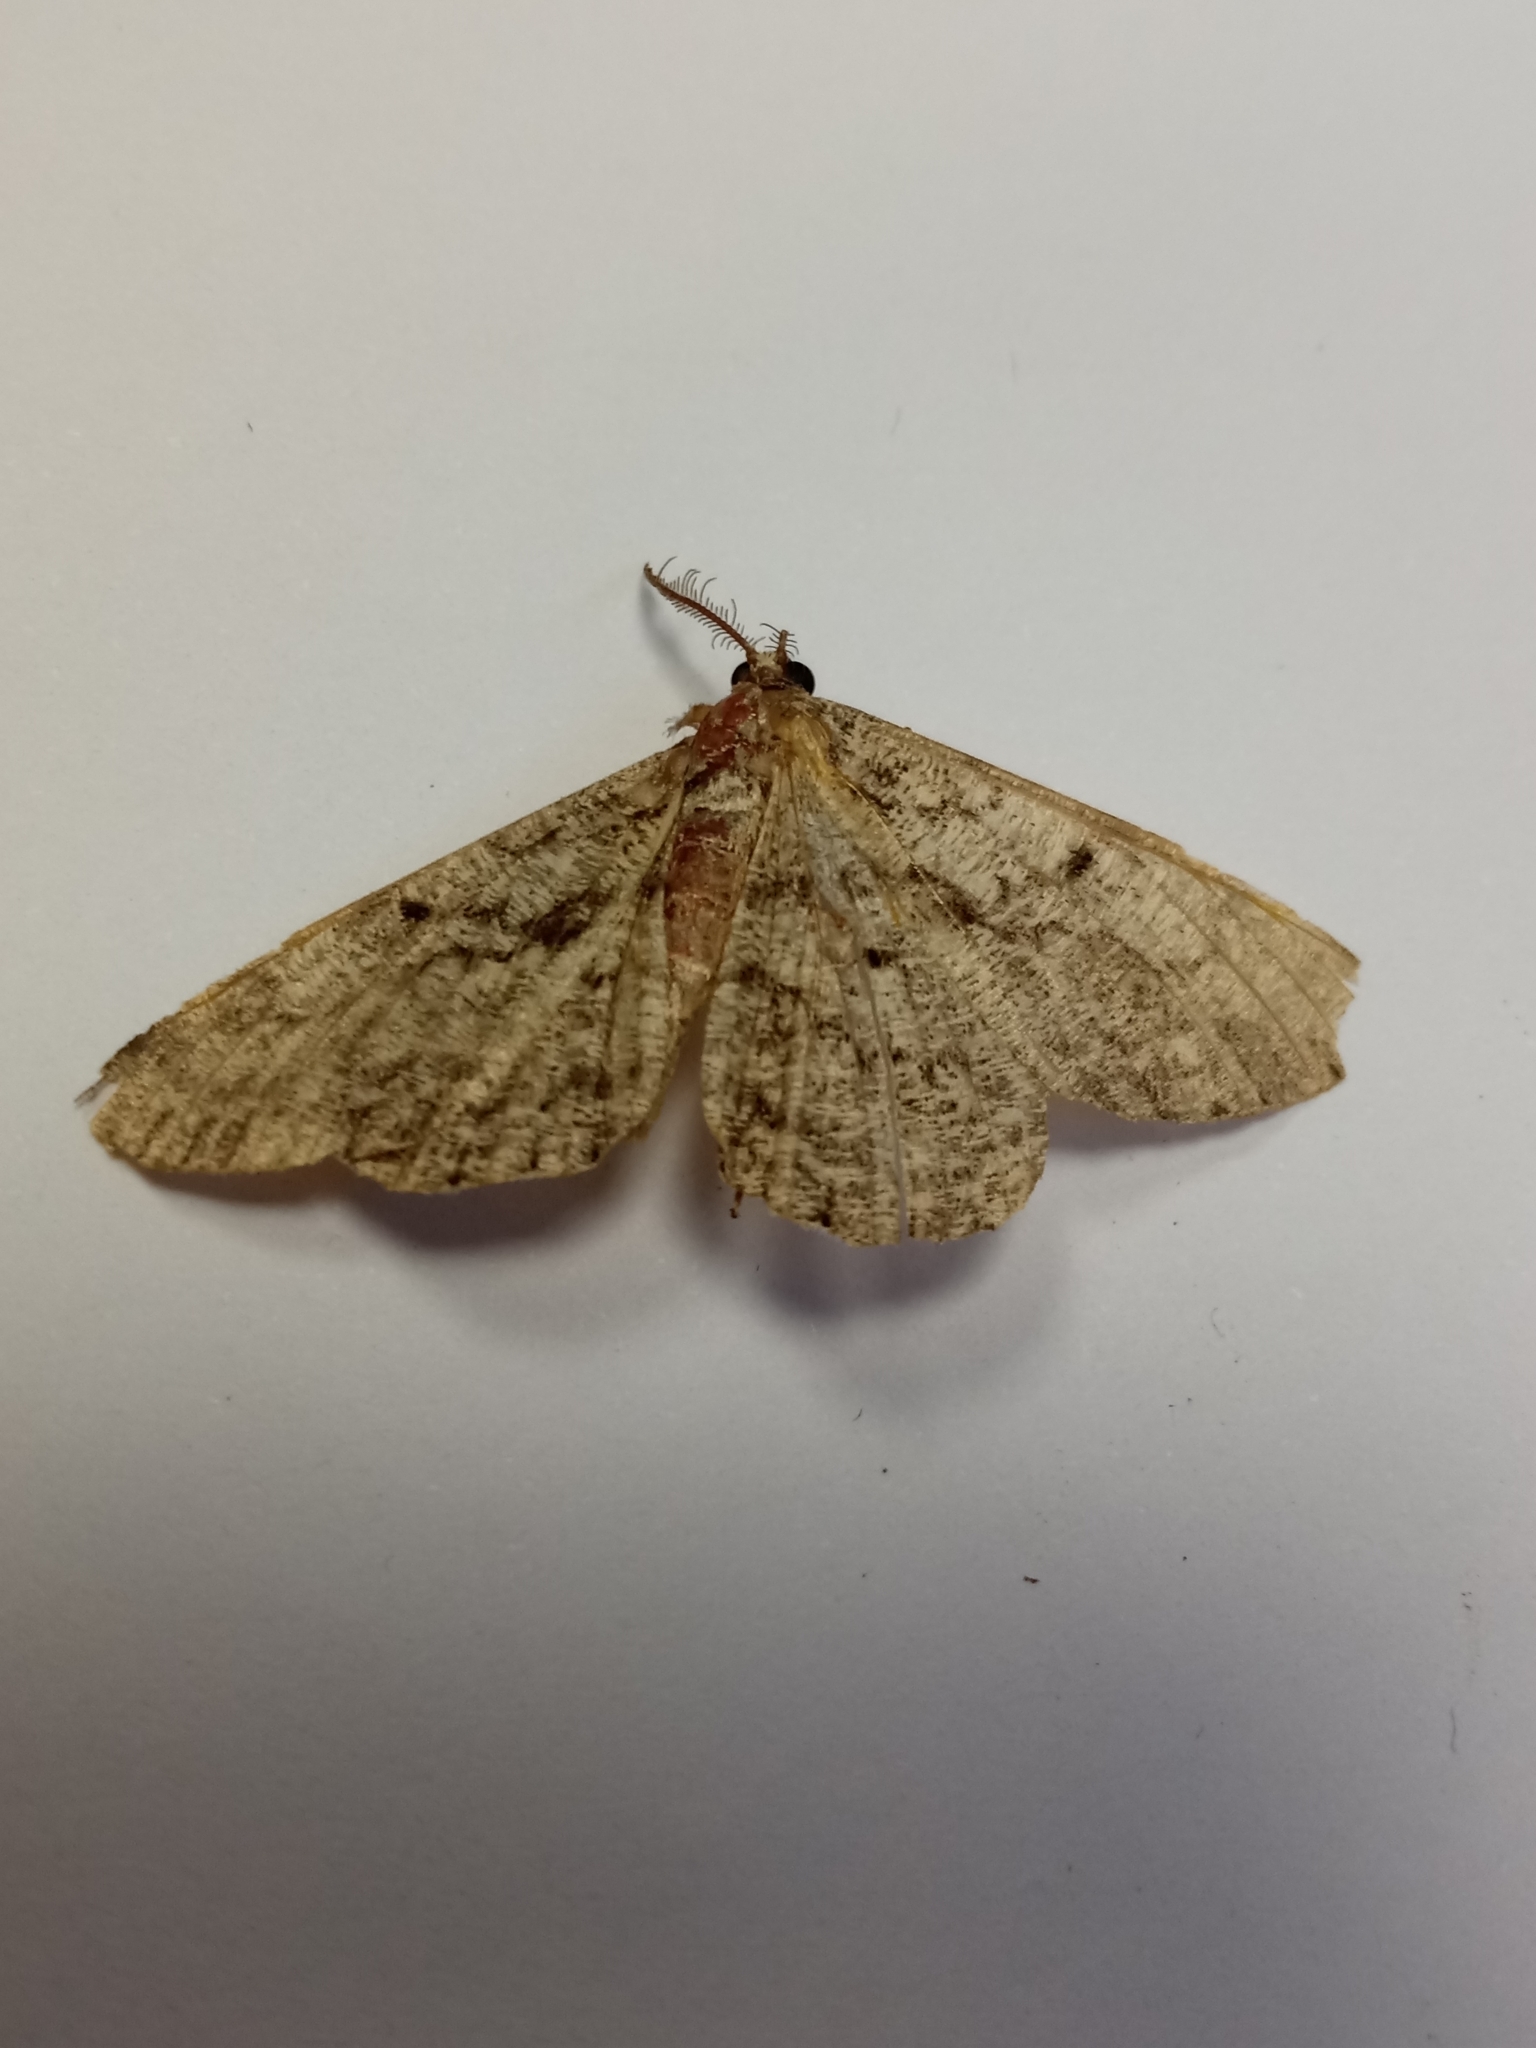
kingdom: Animalia
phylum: Arthropoda
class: Insecta
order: Lepidoptera
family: Geometridae
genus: Peribatodes
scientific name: Peribatodes rhomboidaria
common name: Willow beauty
